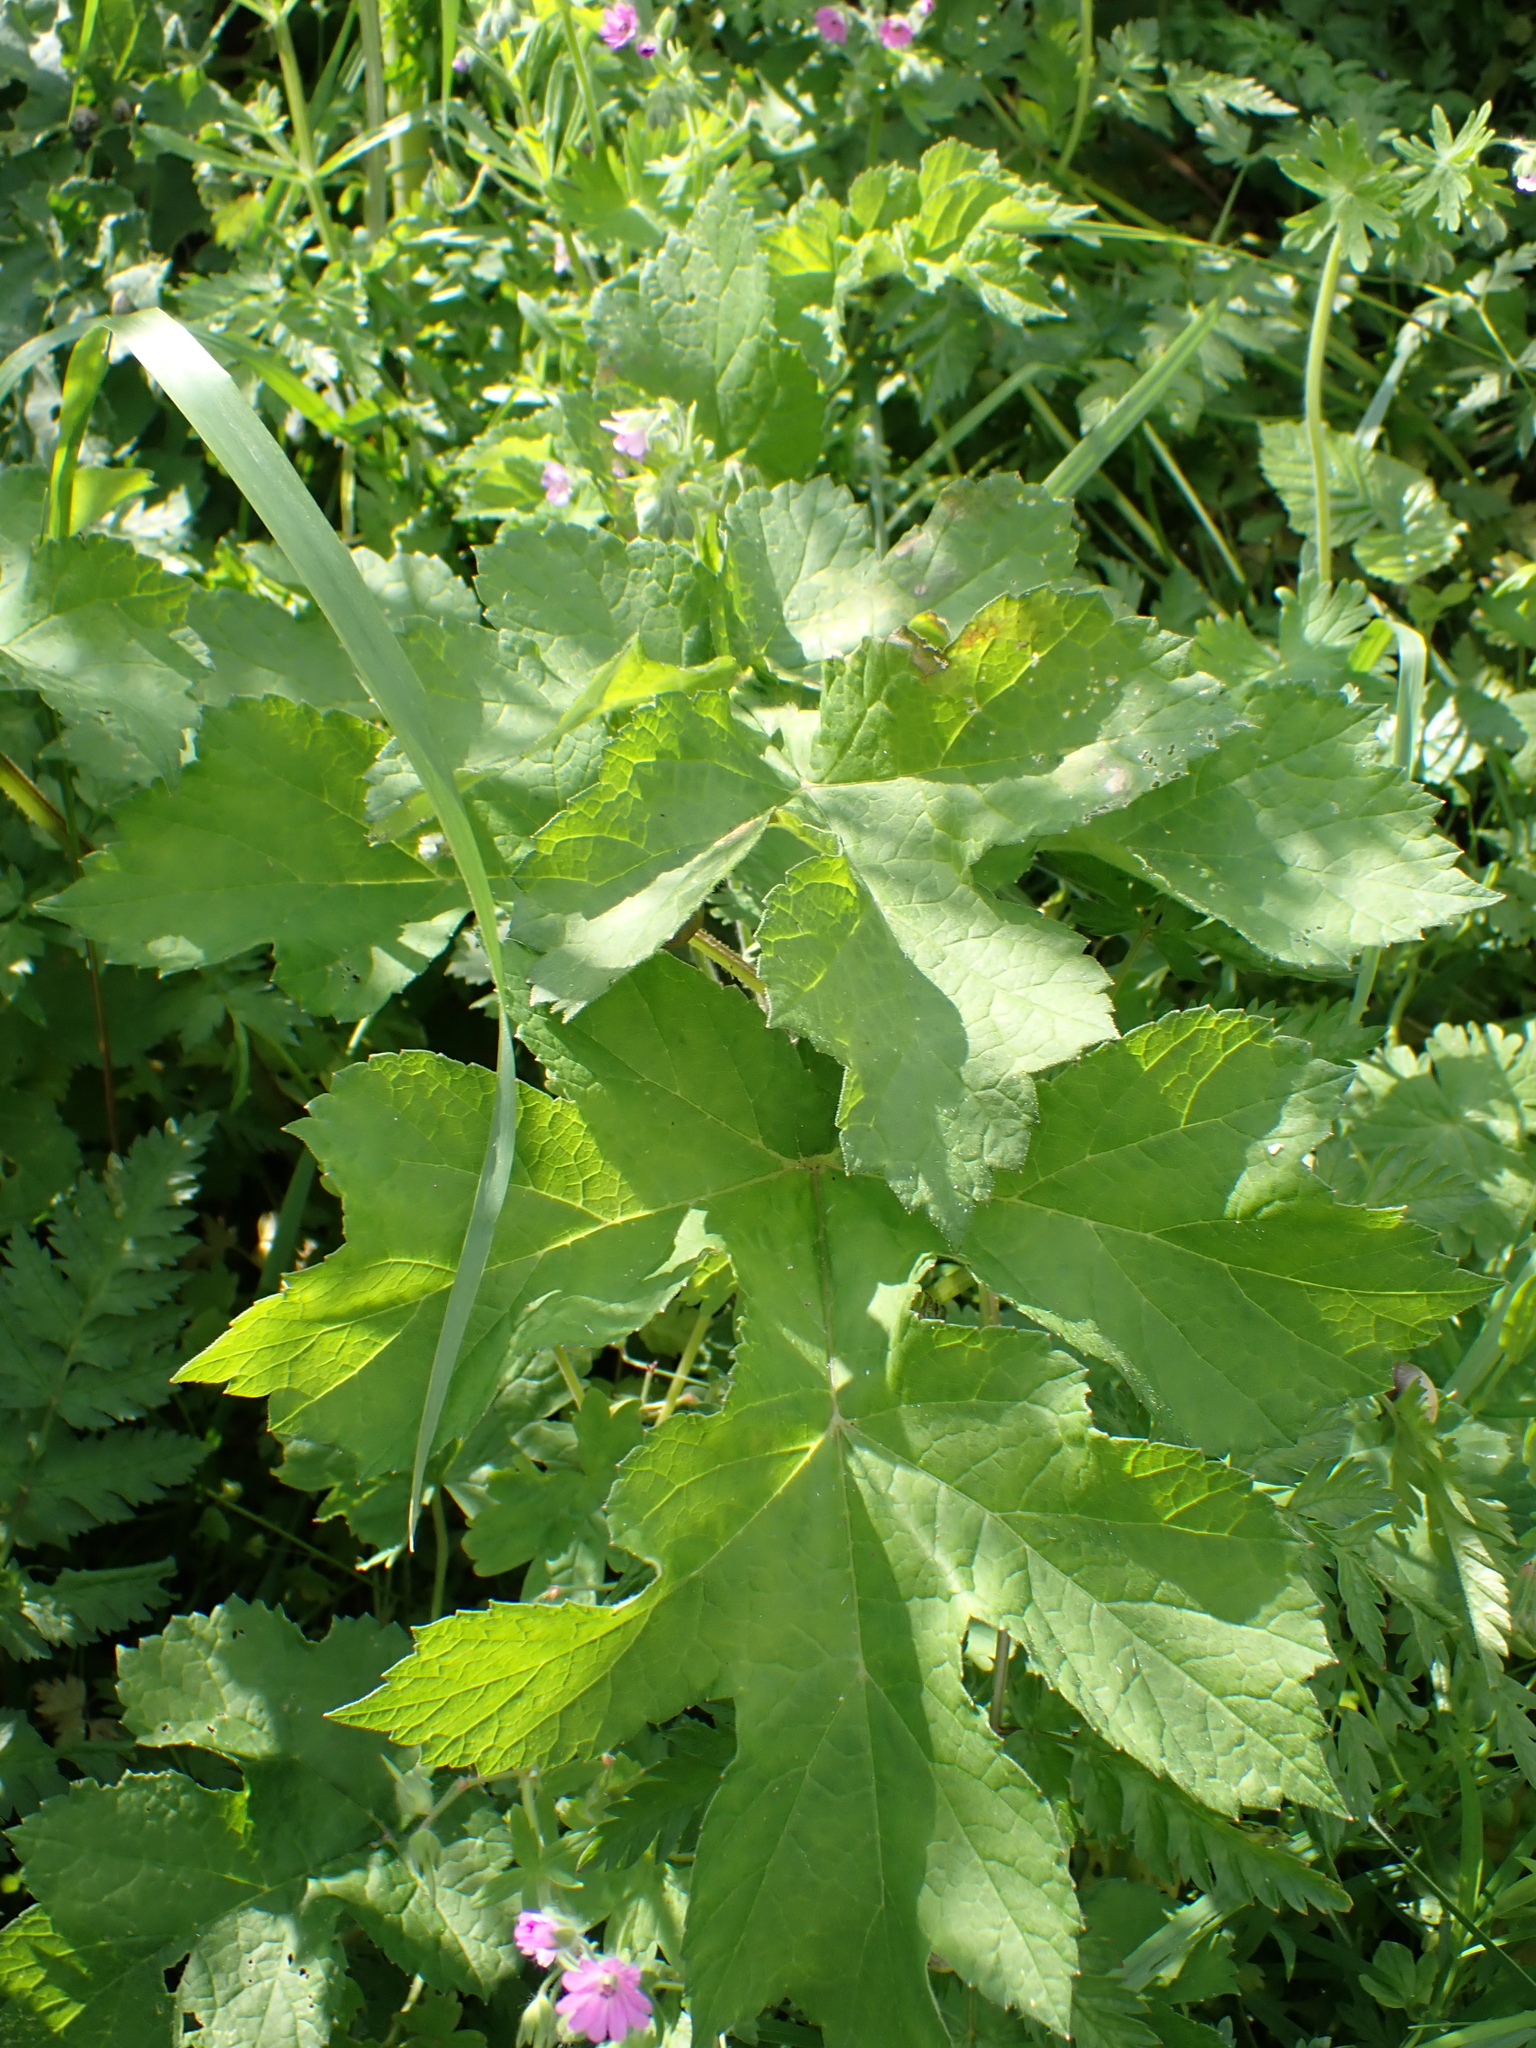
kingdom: Plantae
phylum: Tracheophyta
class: Magnoliopsida
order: Apiales
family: Apiaceae
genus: Heracleum
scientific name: Heracleum sphondylium
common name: Hogweed
